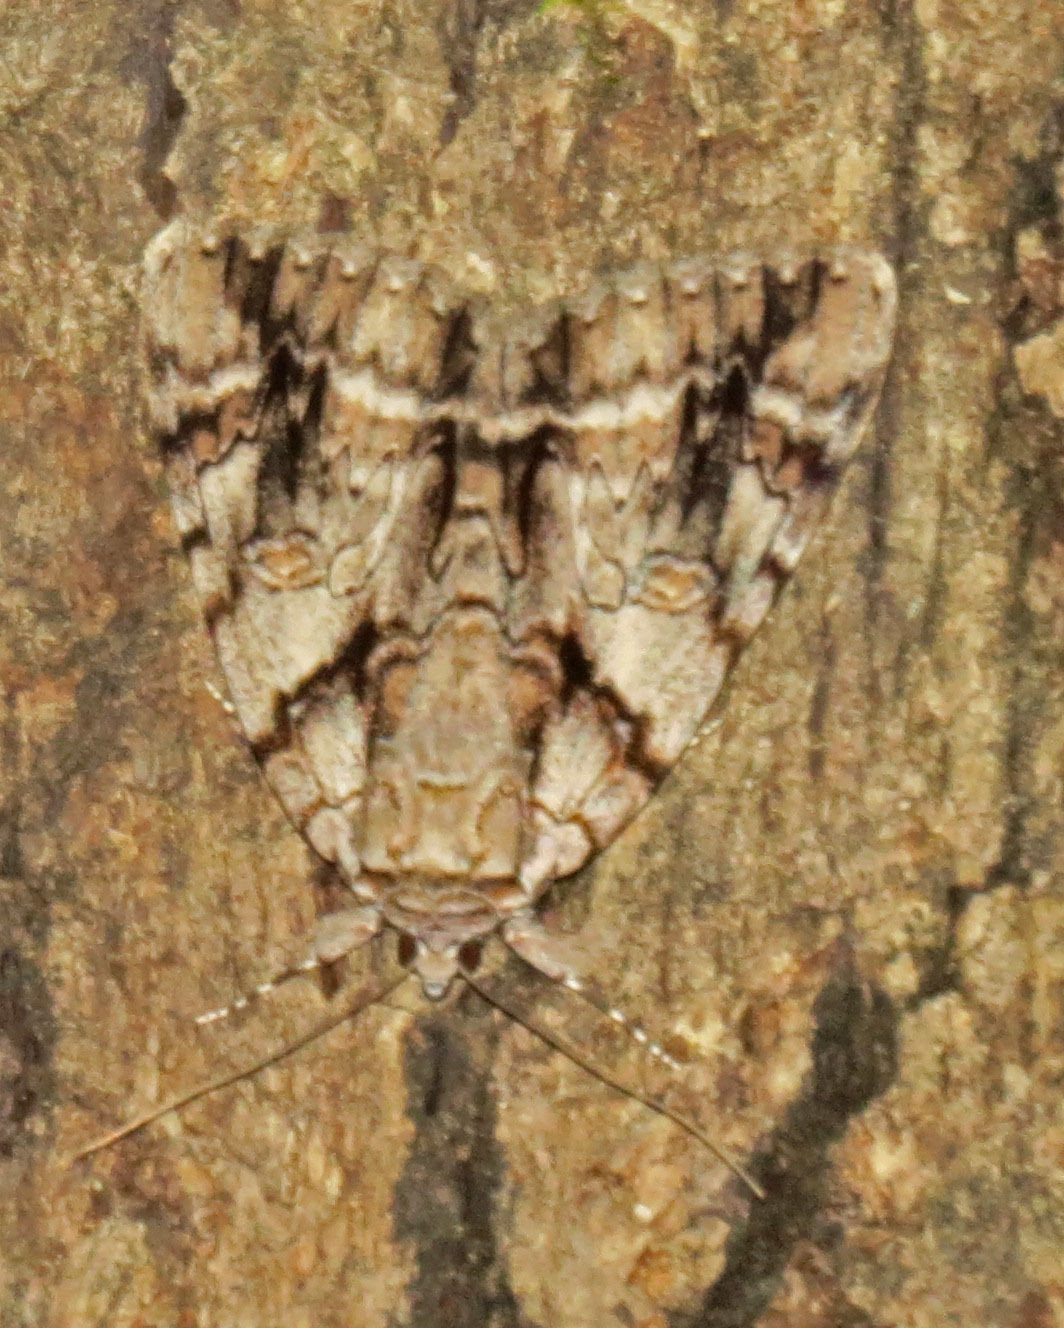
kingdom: Animalia
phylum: Arthropoda
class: Insecta
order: Lepidoptera
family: Erebidae
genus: Catocala
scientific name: Catocala vidua
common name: The widow
